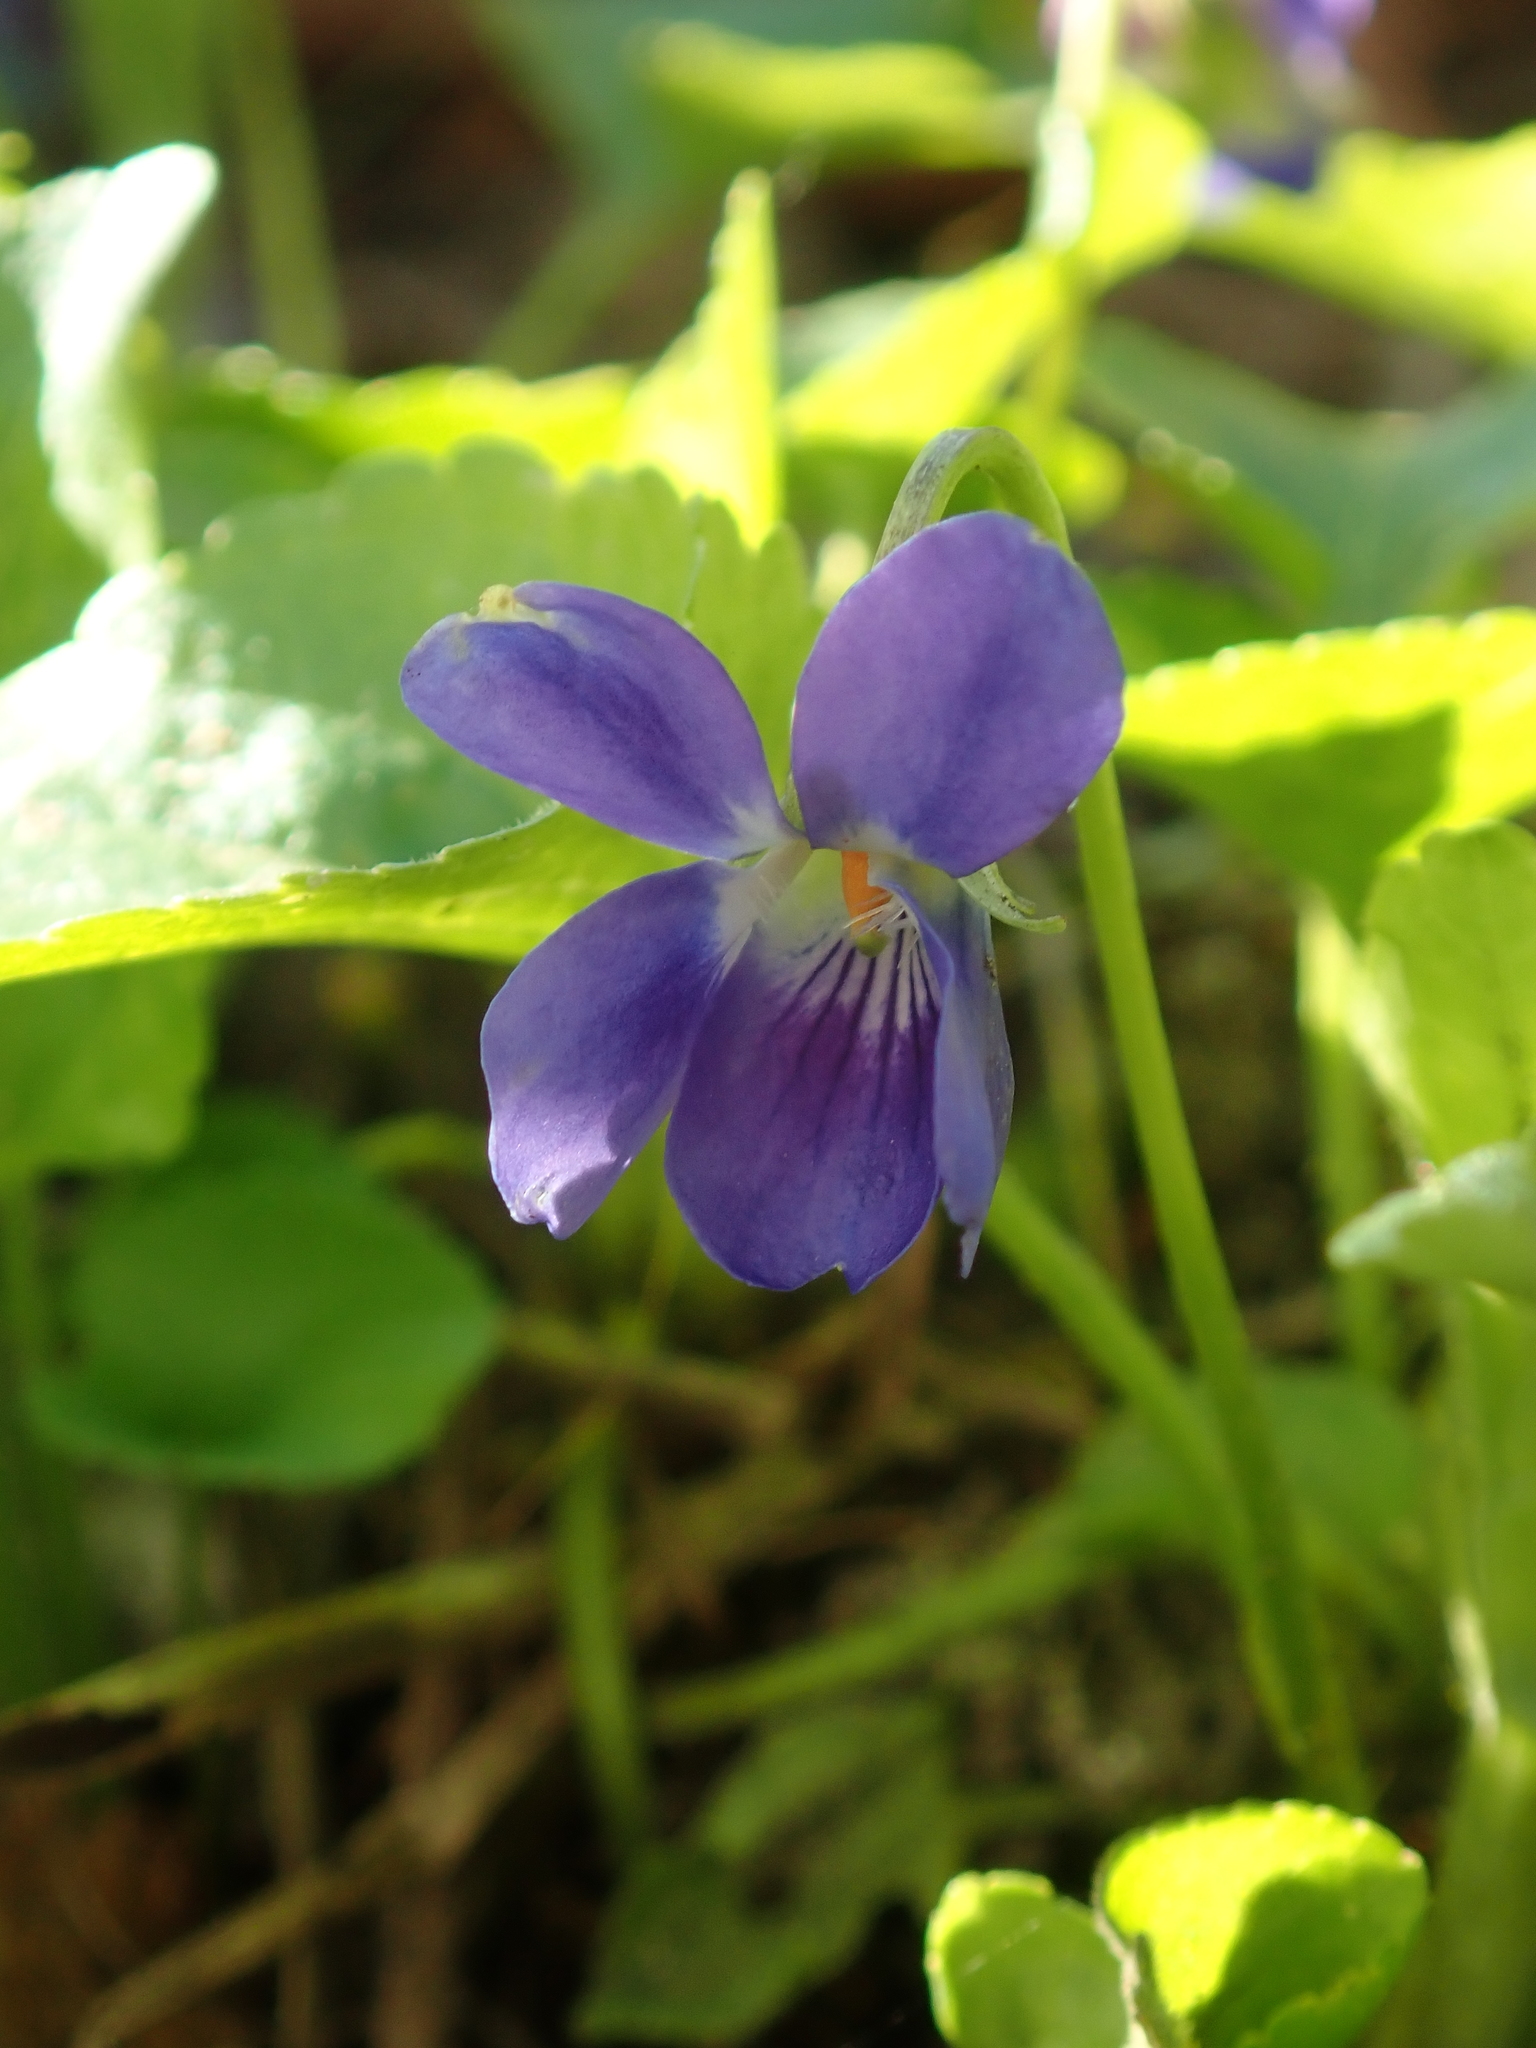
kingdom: Plantae
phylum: Tracheophyta
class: Magnoliopsida
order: Malpighiales
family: Violaceae
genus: Viola
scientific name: Viola odorata
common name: Sweet violet
